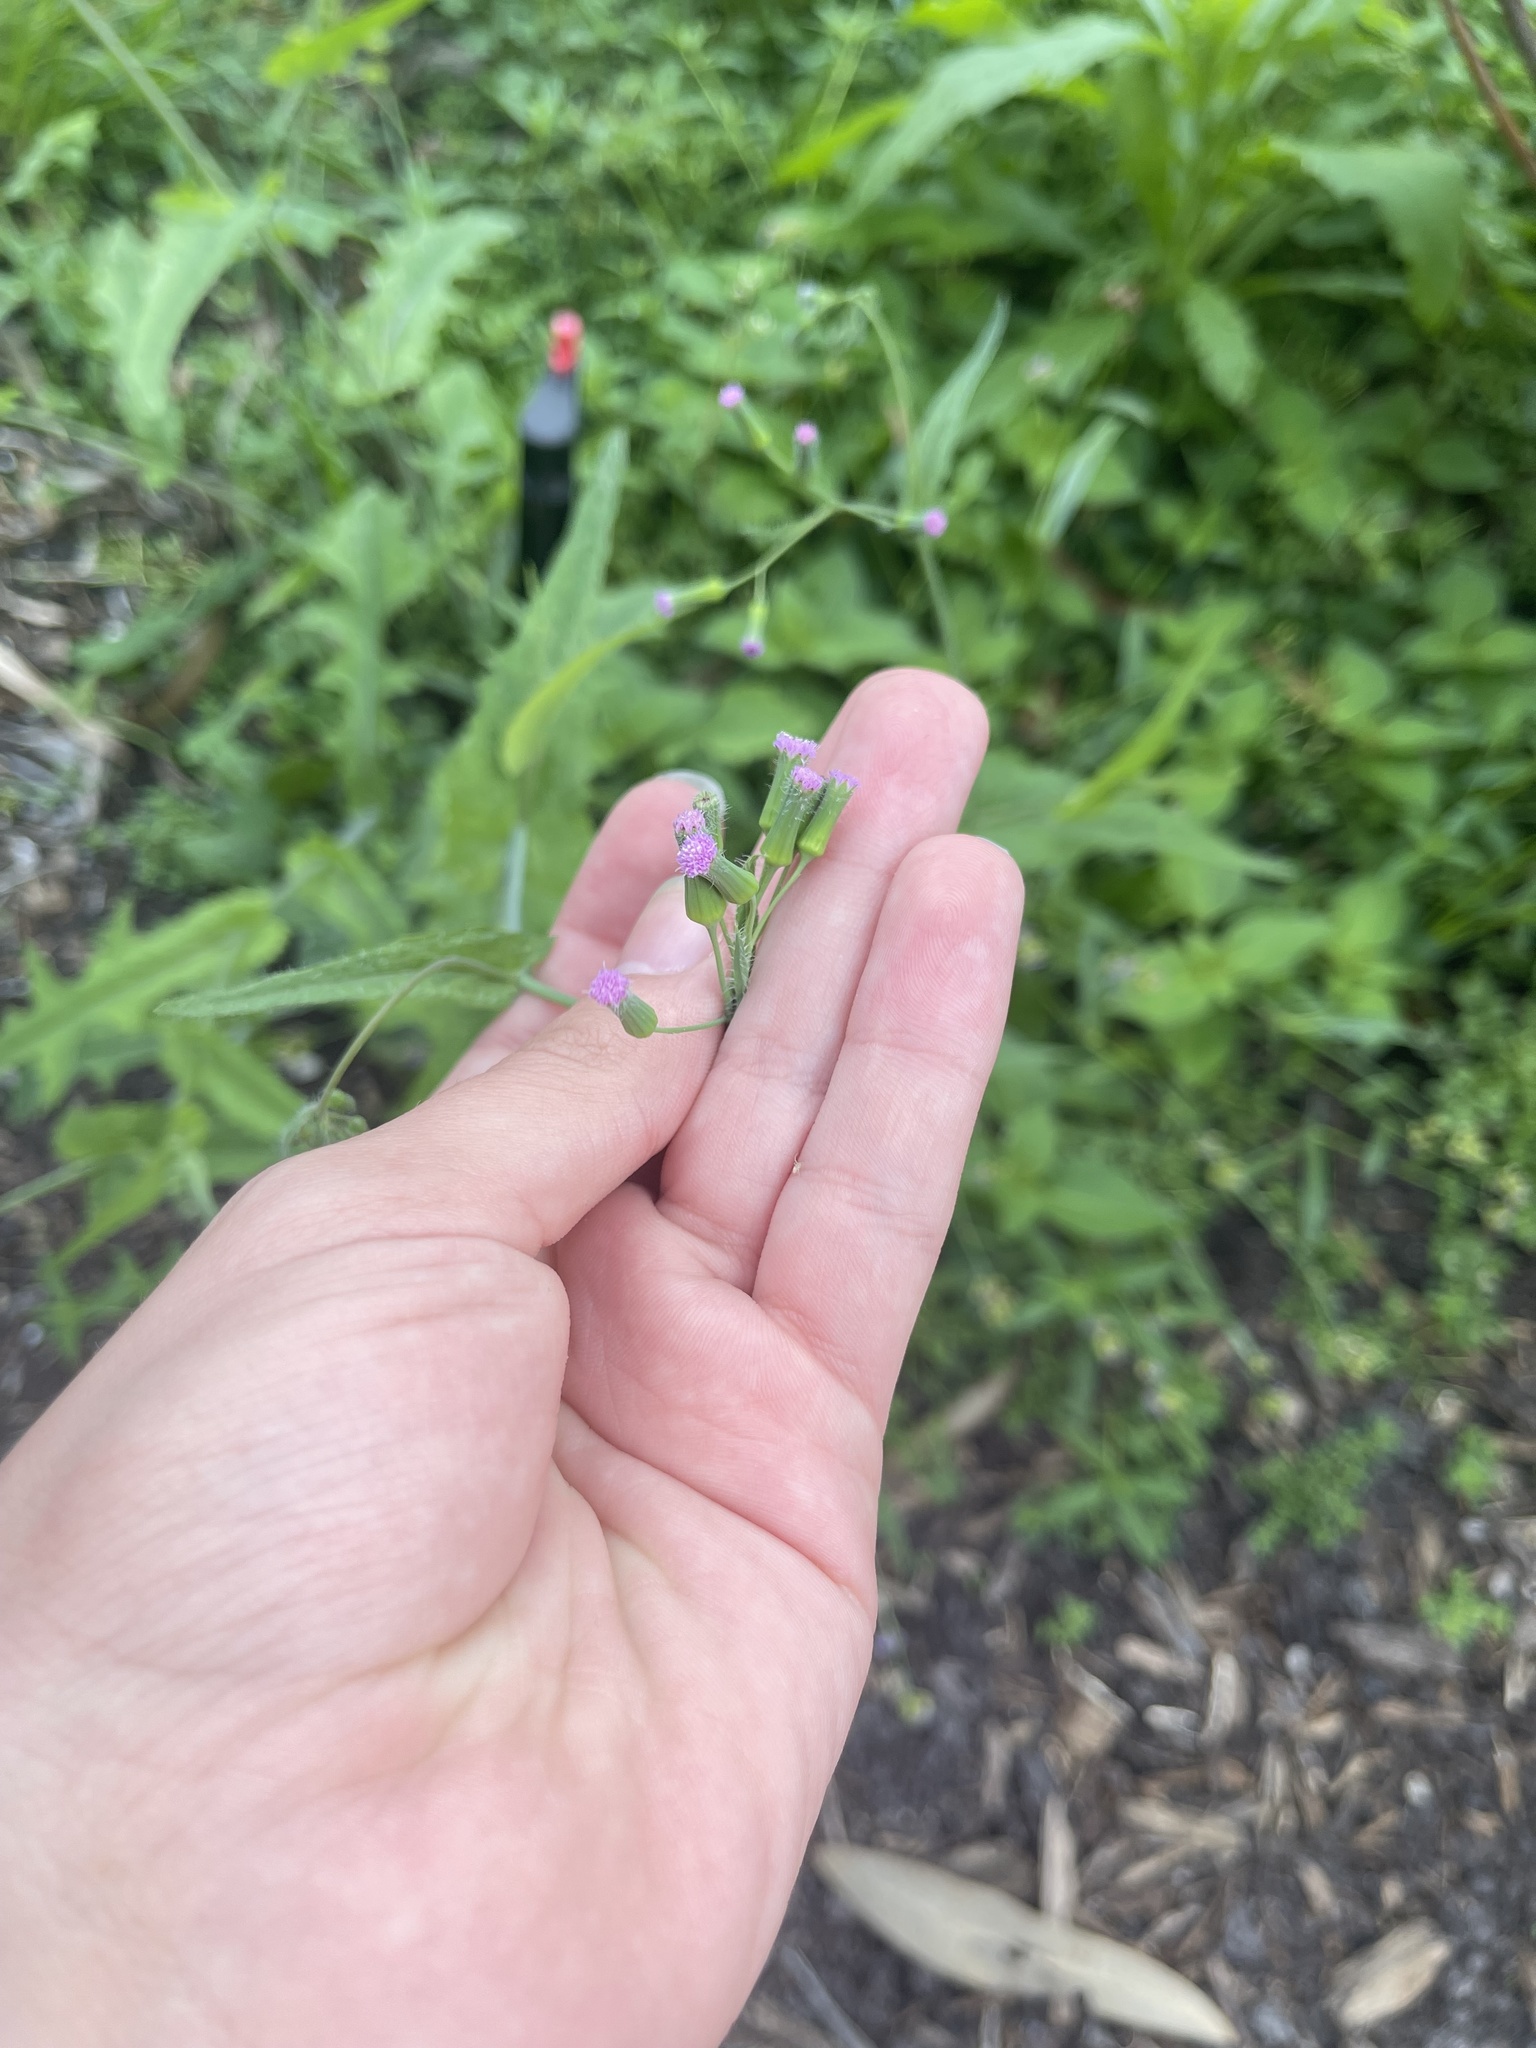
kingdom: Plantae
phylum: Tracheophyta
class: Magnoliopsida
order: Asterales
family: Asteraceae
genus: Emilia
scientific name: Emilia sonchifolia
